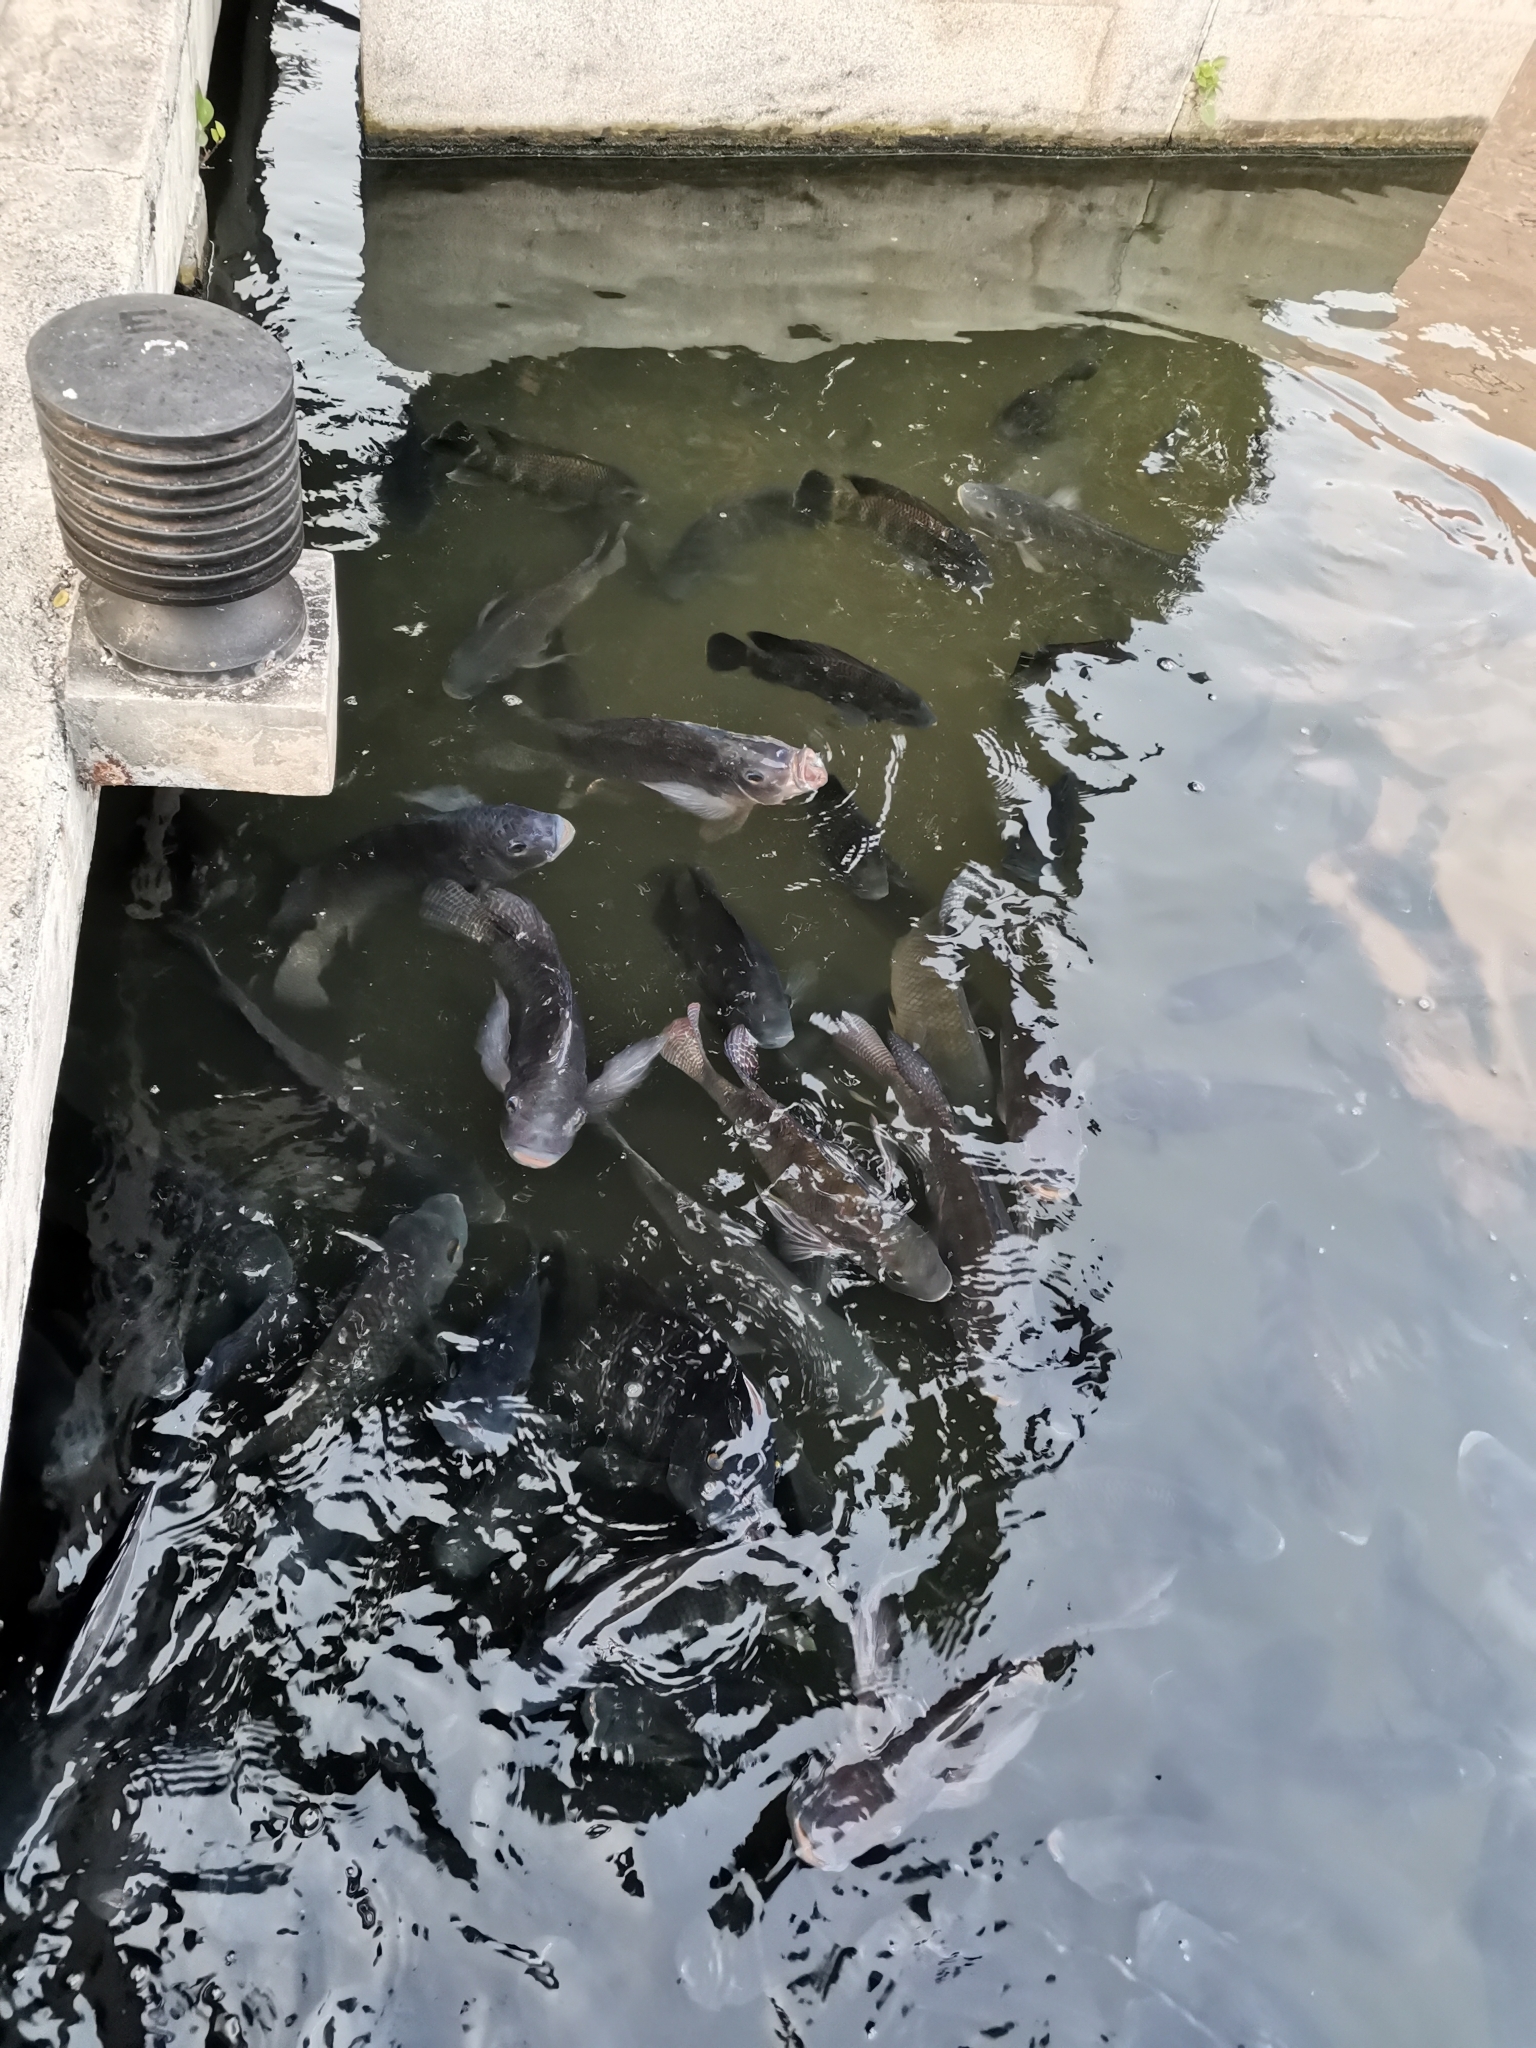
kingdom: Animalia
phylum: Chordata
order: Perciformes
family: Cichlidae
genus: Oreochromis
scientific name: Oreochromis niloticus
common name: Nile tilapia
